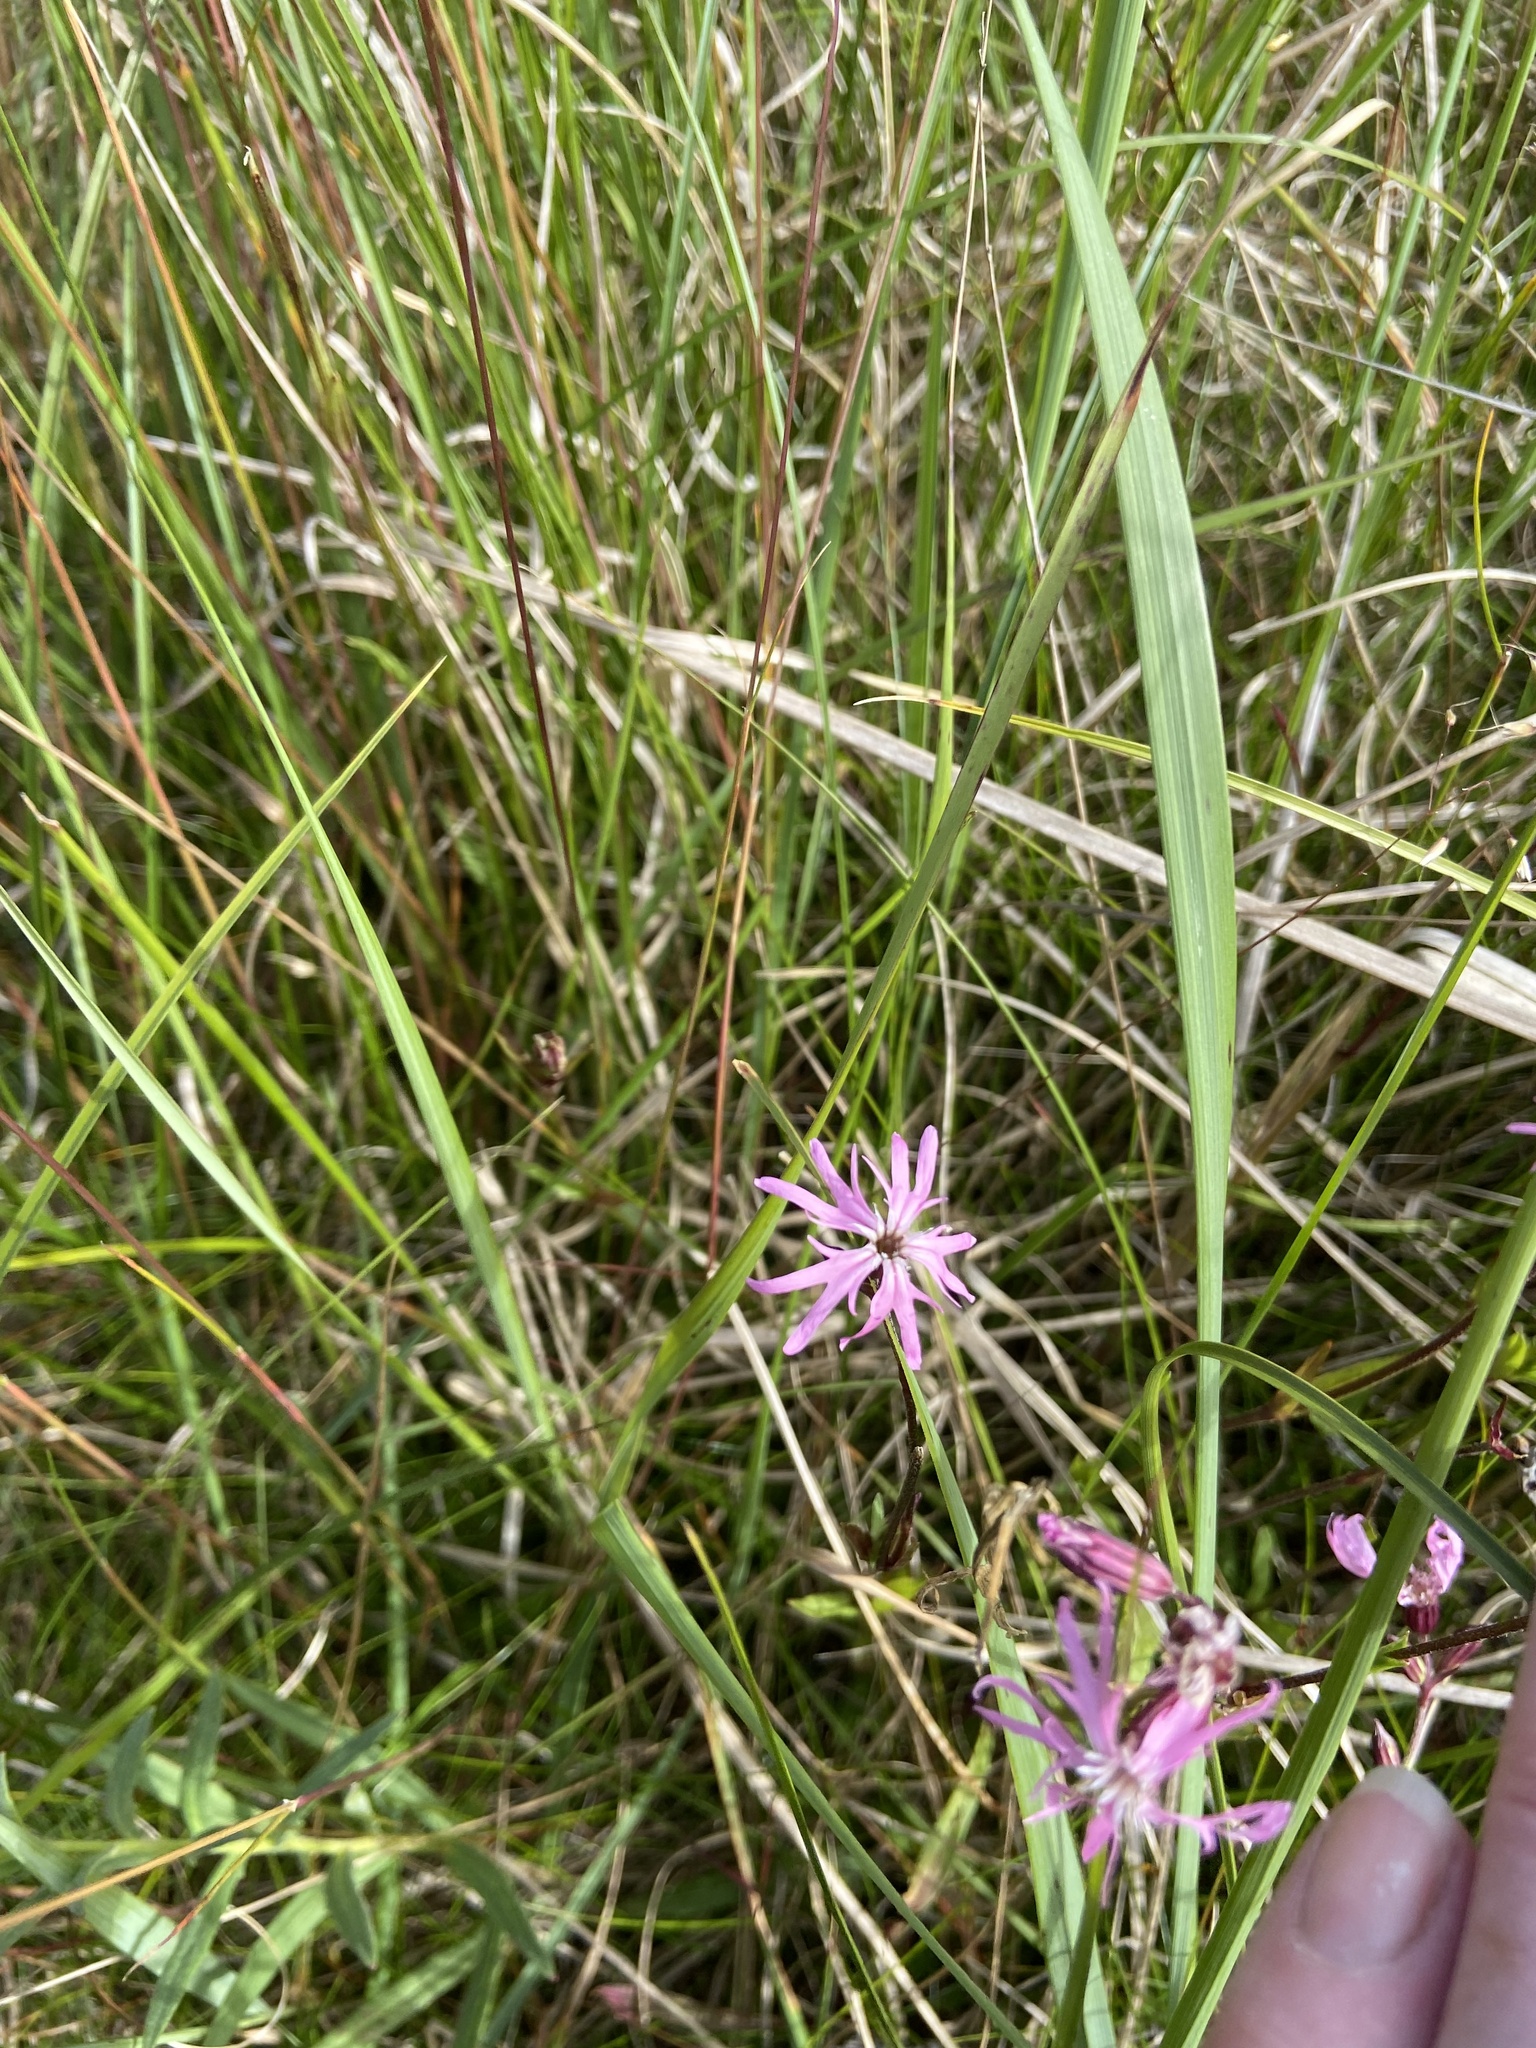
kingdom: Plantae
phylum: Tracheophyta
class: Magnoliopsida
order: Caryophyllales
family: Caryophyllaceae
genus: Silene
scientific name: Silene flos-cuculi
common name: Ragged-robin
